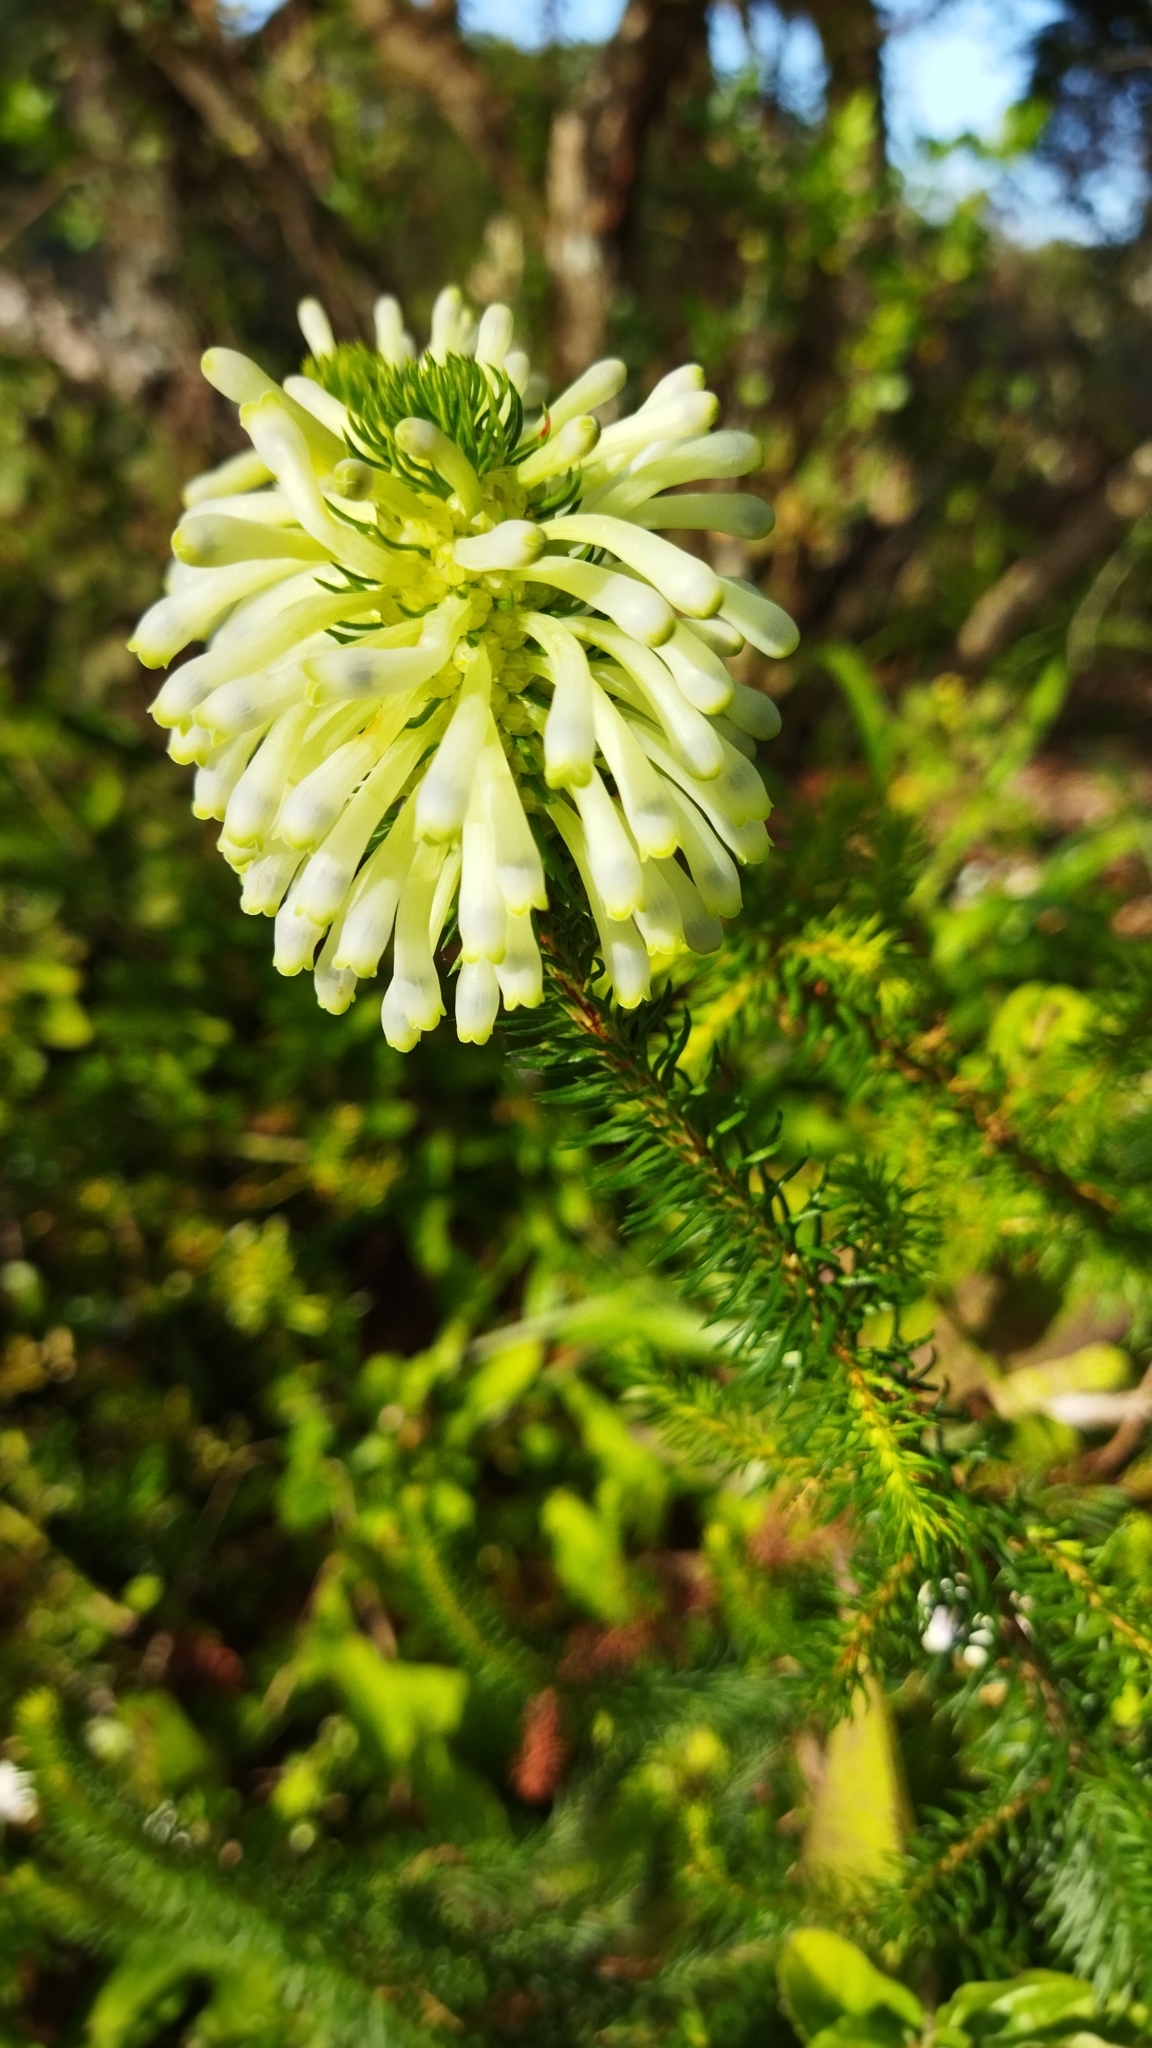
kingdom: Plantae
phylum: Tracheophyta
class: Magnoliopsida
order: Ericales
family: Ericaceae
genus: Erica
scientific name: Erica sessiliflora
